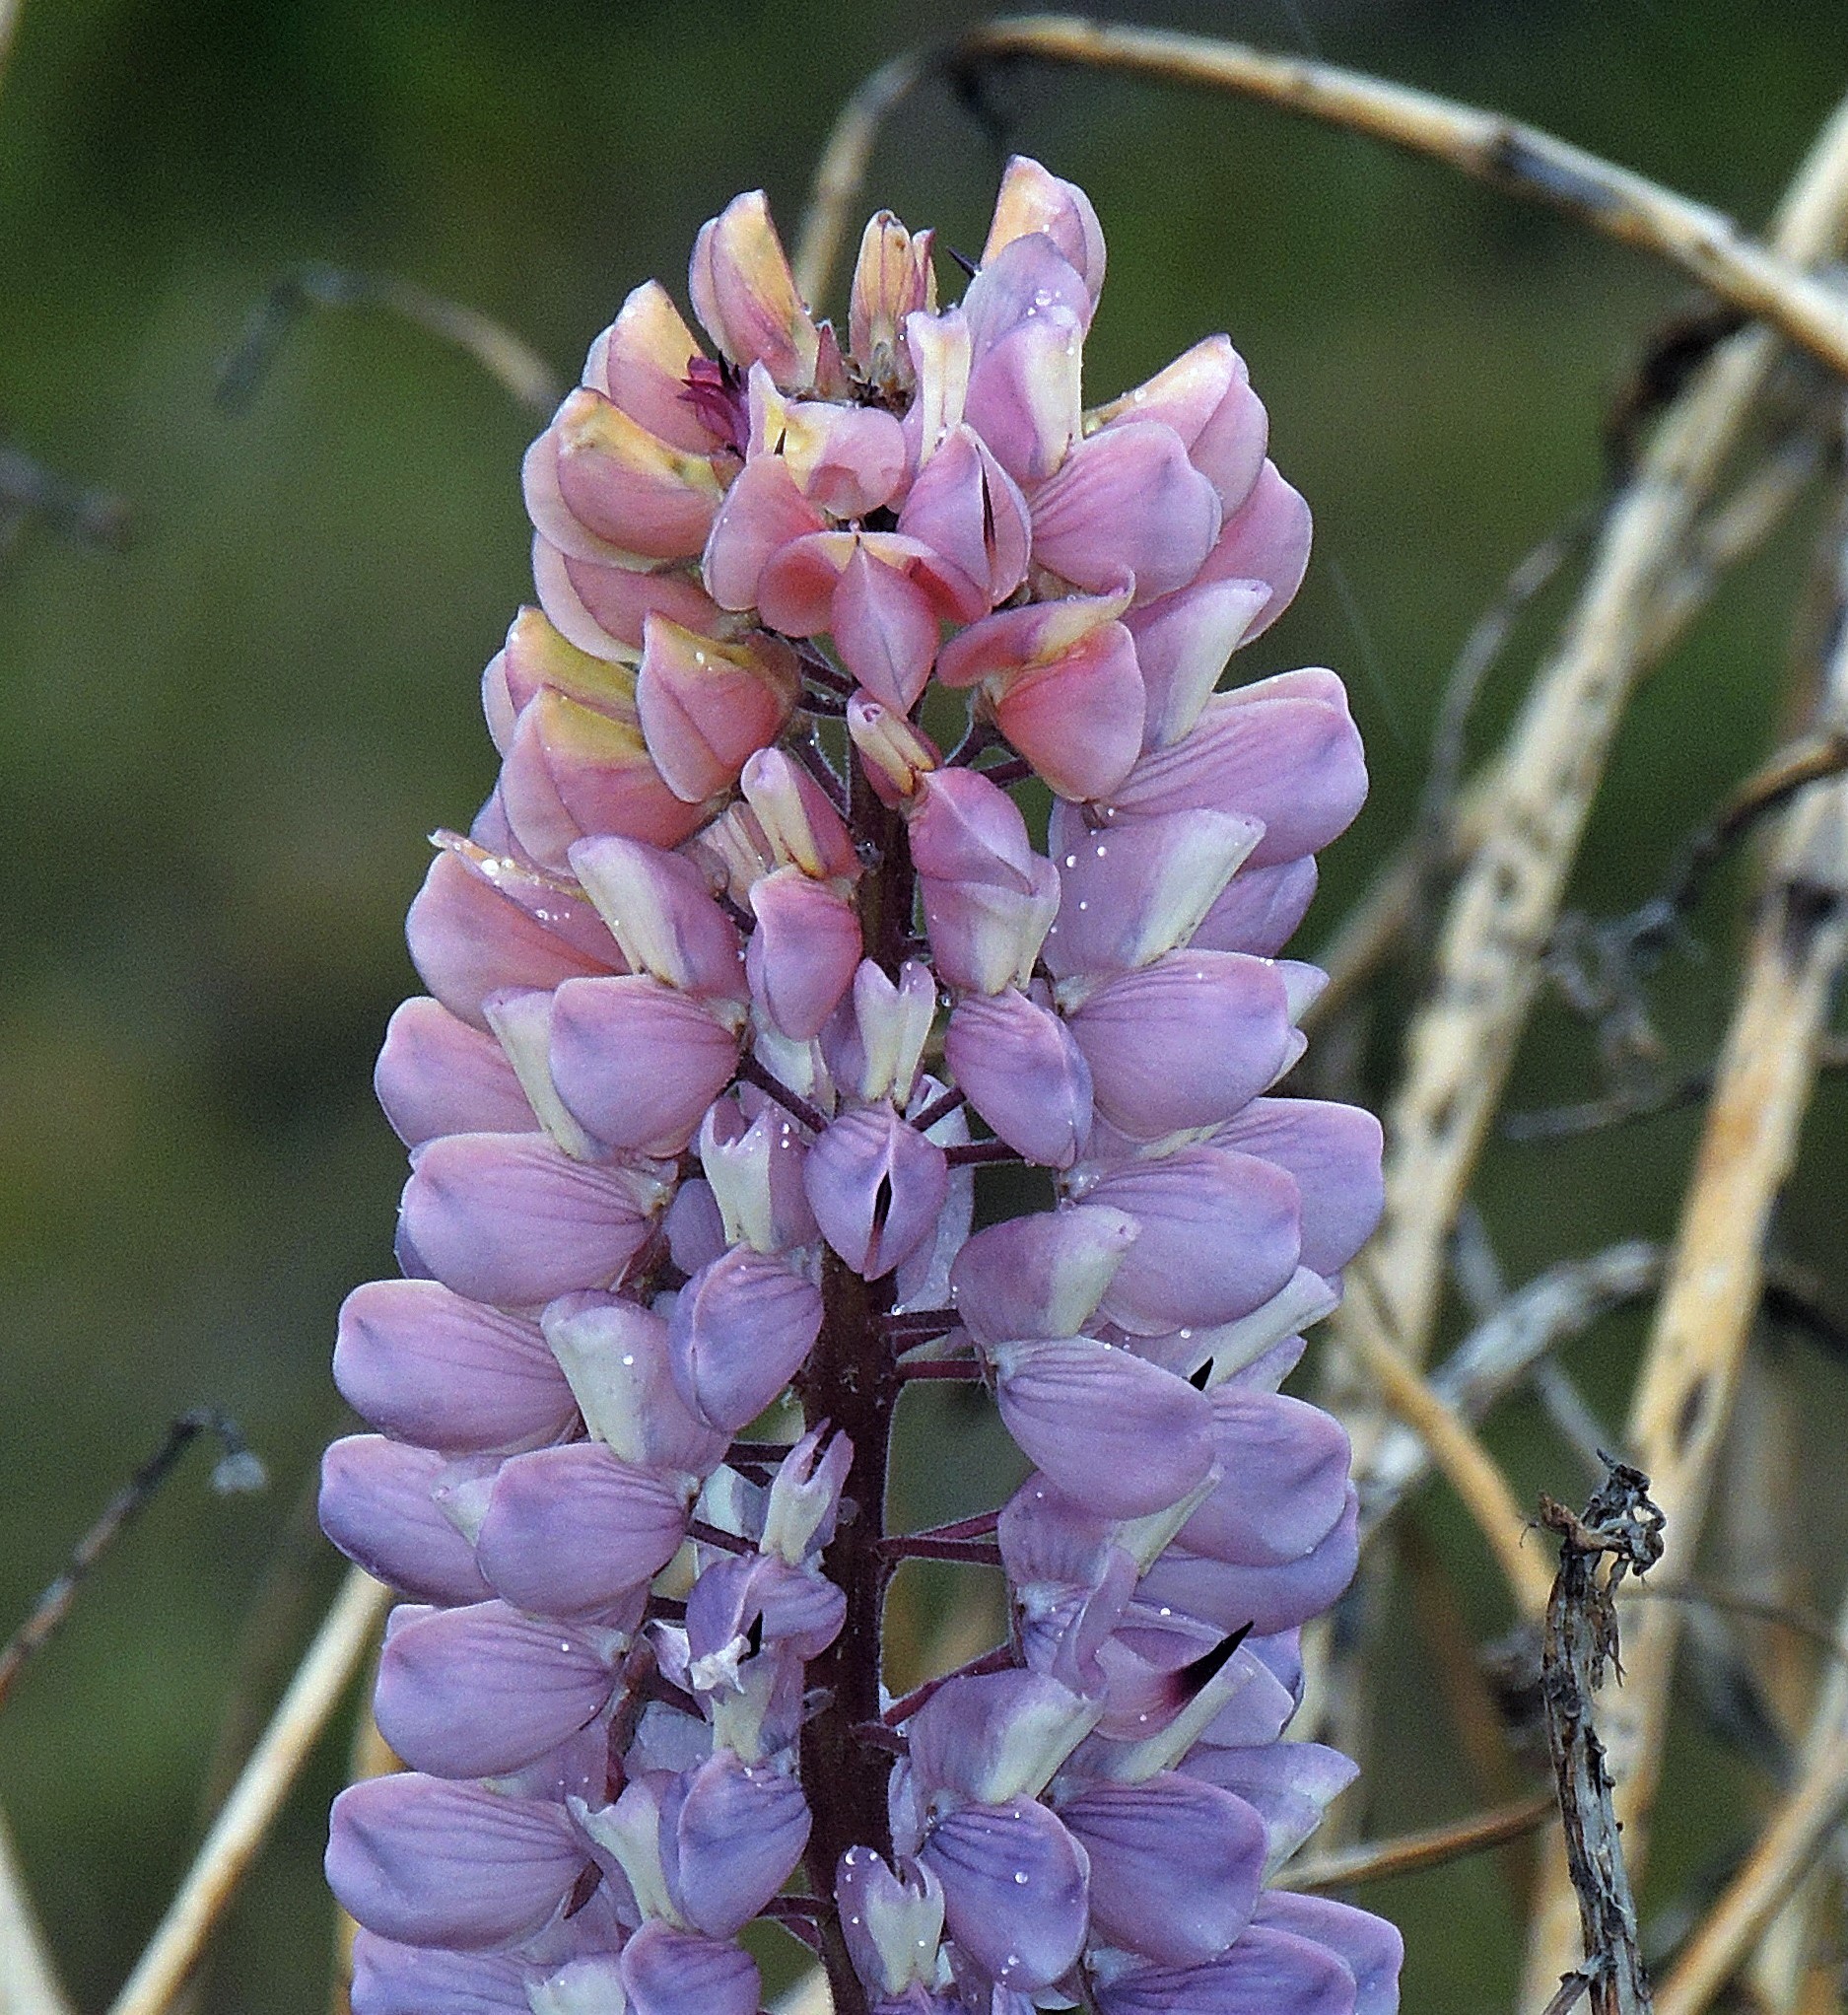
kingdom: Plantae
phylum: Tracheophyta
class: Magnoliopsida
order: Fabales
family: Fabaceae
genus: Lupinus
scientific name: Lupinus polyphyllus
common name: Garden lupin
